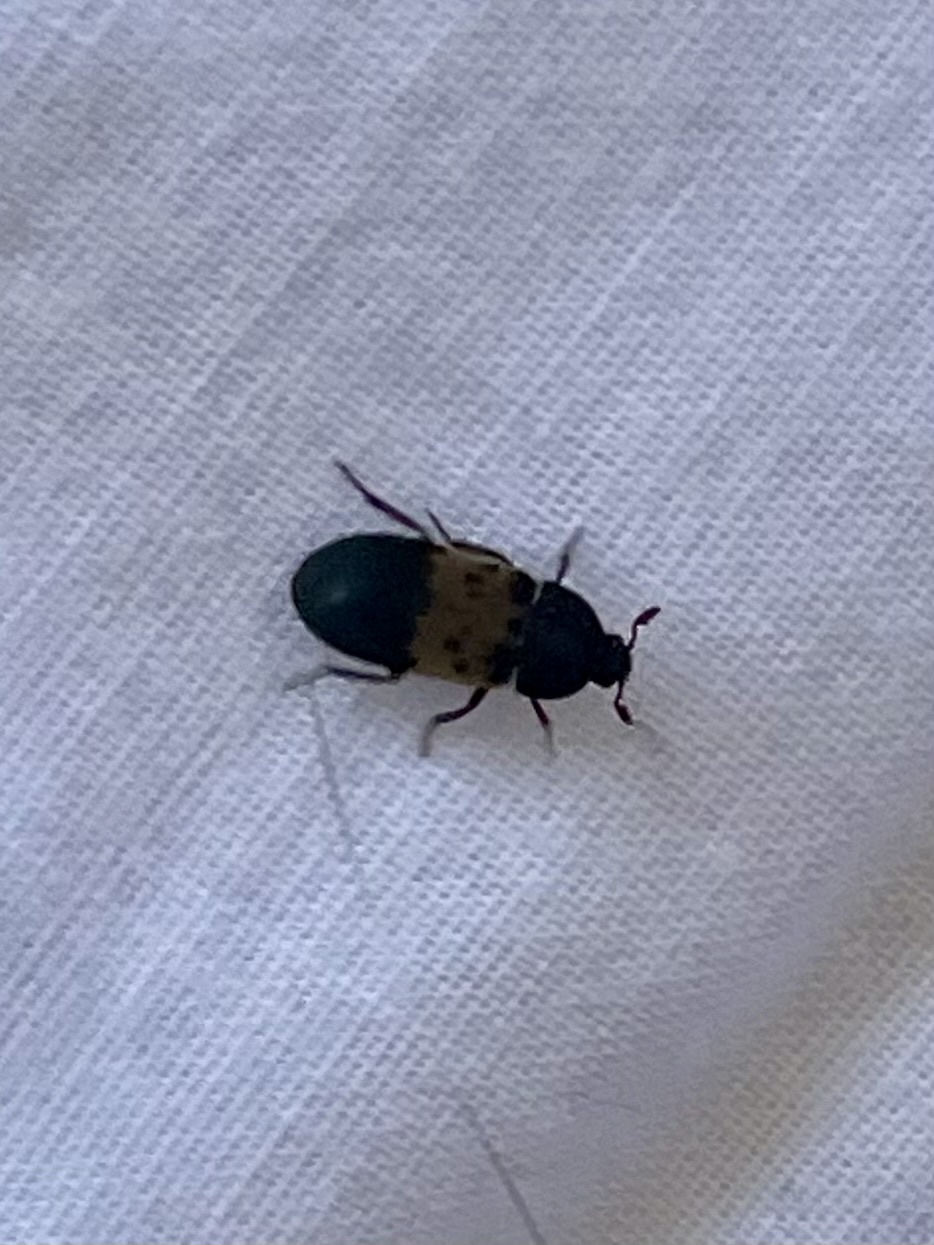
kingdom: Animalia
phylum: Arthropoda
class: Insecta
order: Coleoptera
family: Dermestidae
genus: Dermestes
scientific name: Dermestes lardarius
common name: Larder beetle
